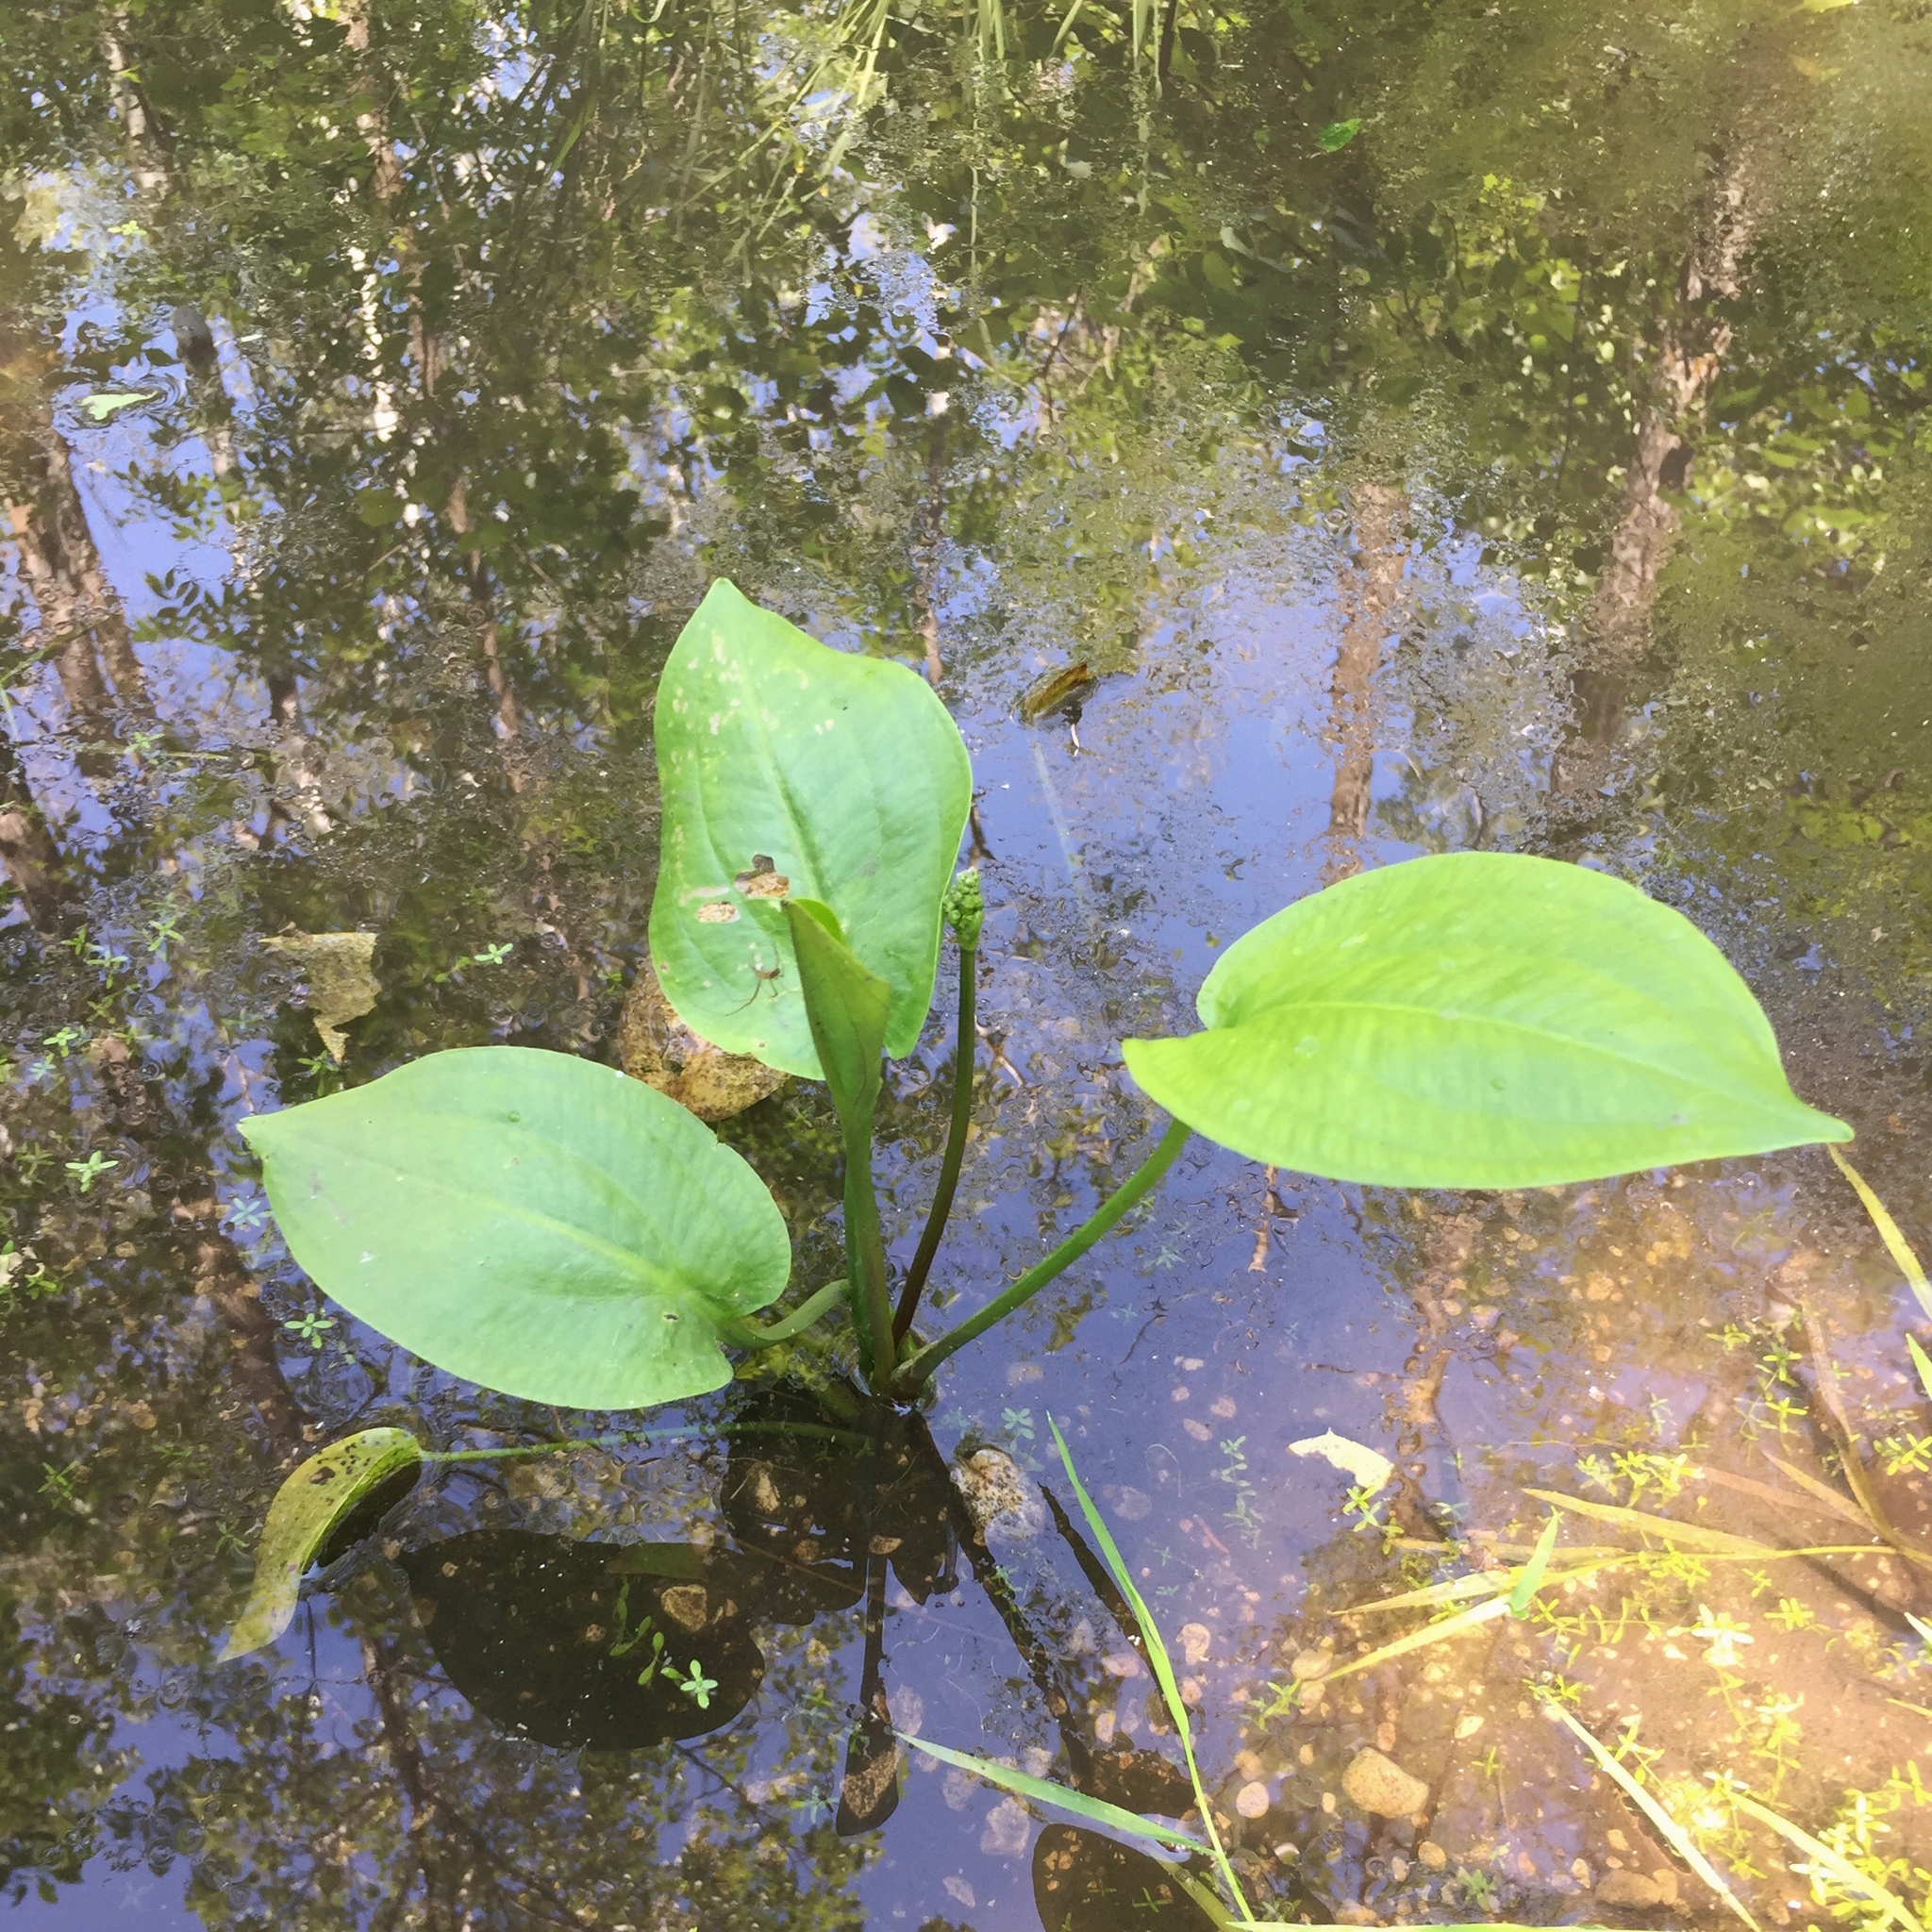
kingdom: Plantae
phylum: Tracheophyta
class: Liliopsida
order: Alismatales
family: Alismataceae
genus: Alisma
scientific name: Alisma triviale
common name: Northern water-plantain
